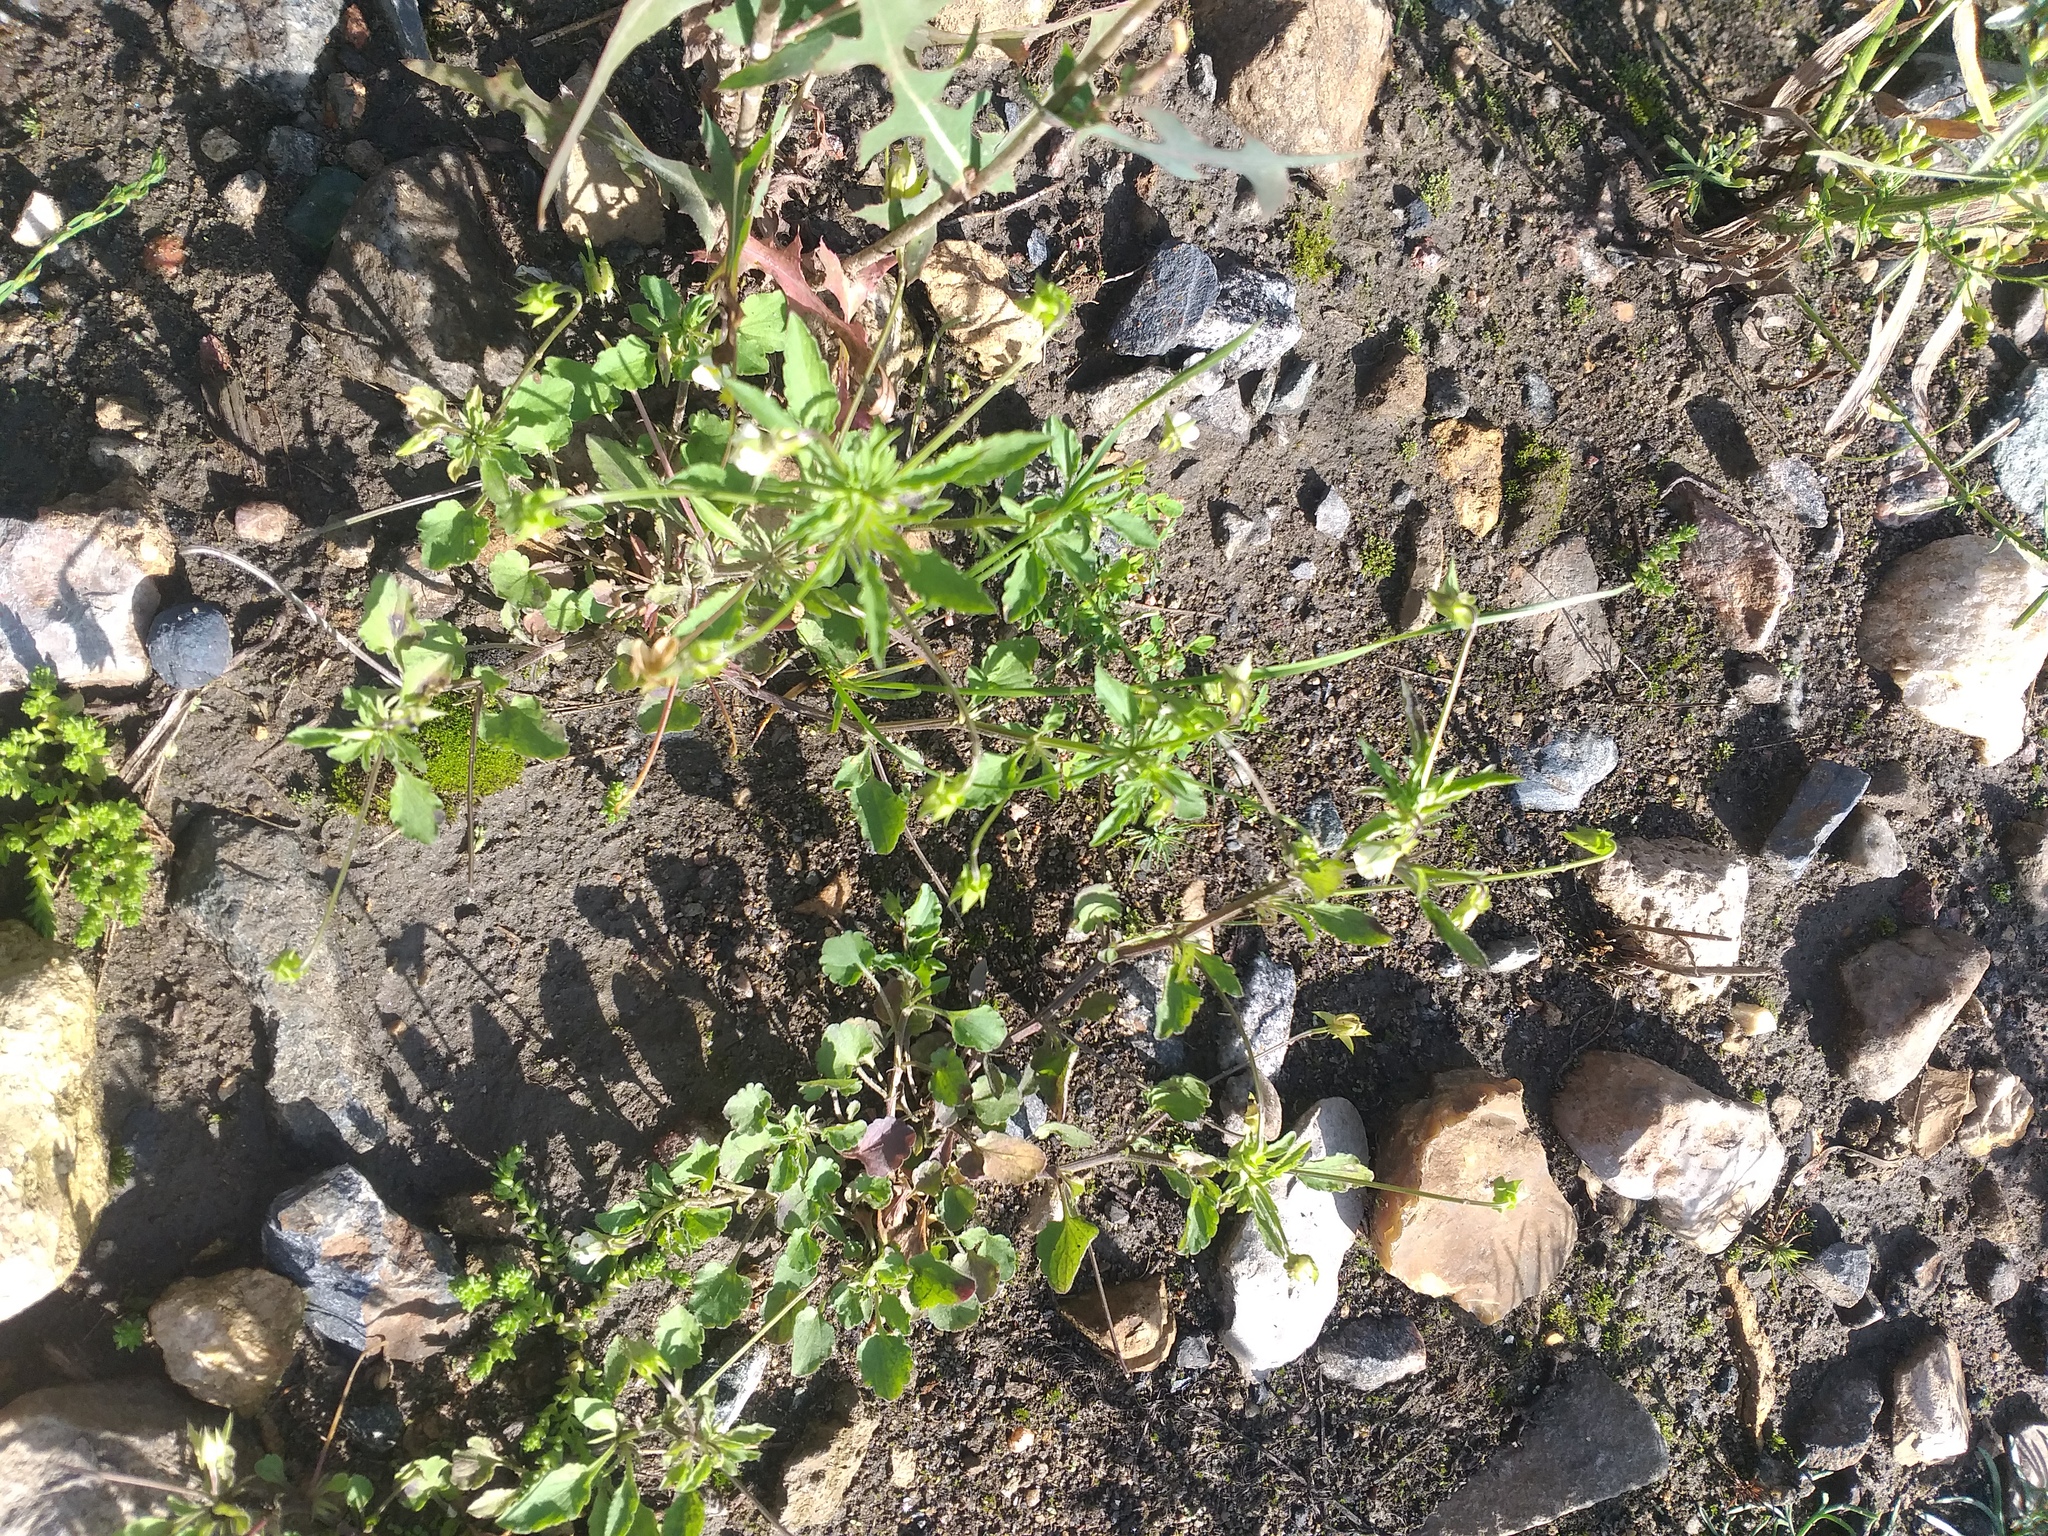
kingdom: Plantae
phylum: Tracheophyta
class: Magnoliopsida
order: Malpighiales
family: Violaceae
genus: Viola
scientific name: Viola arvensis
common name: Field pansy
